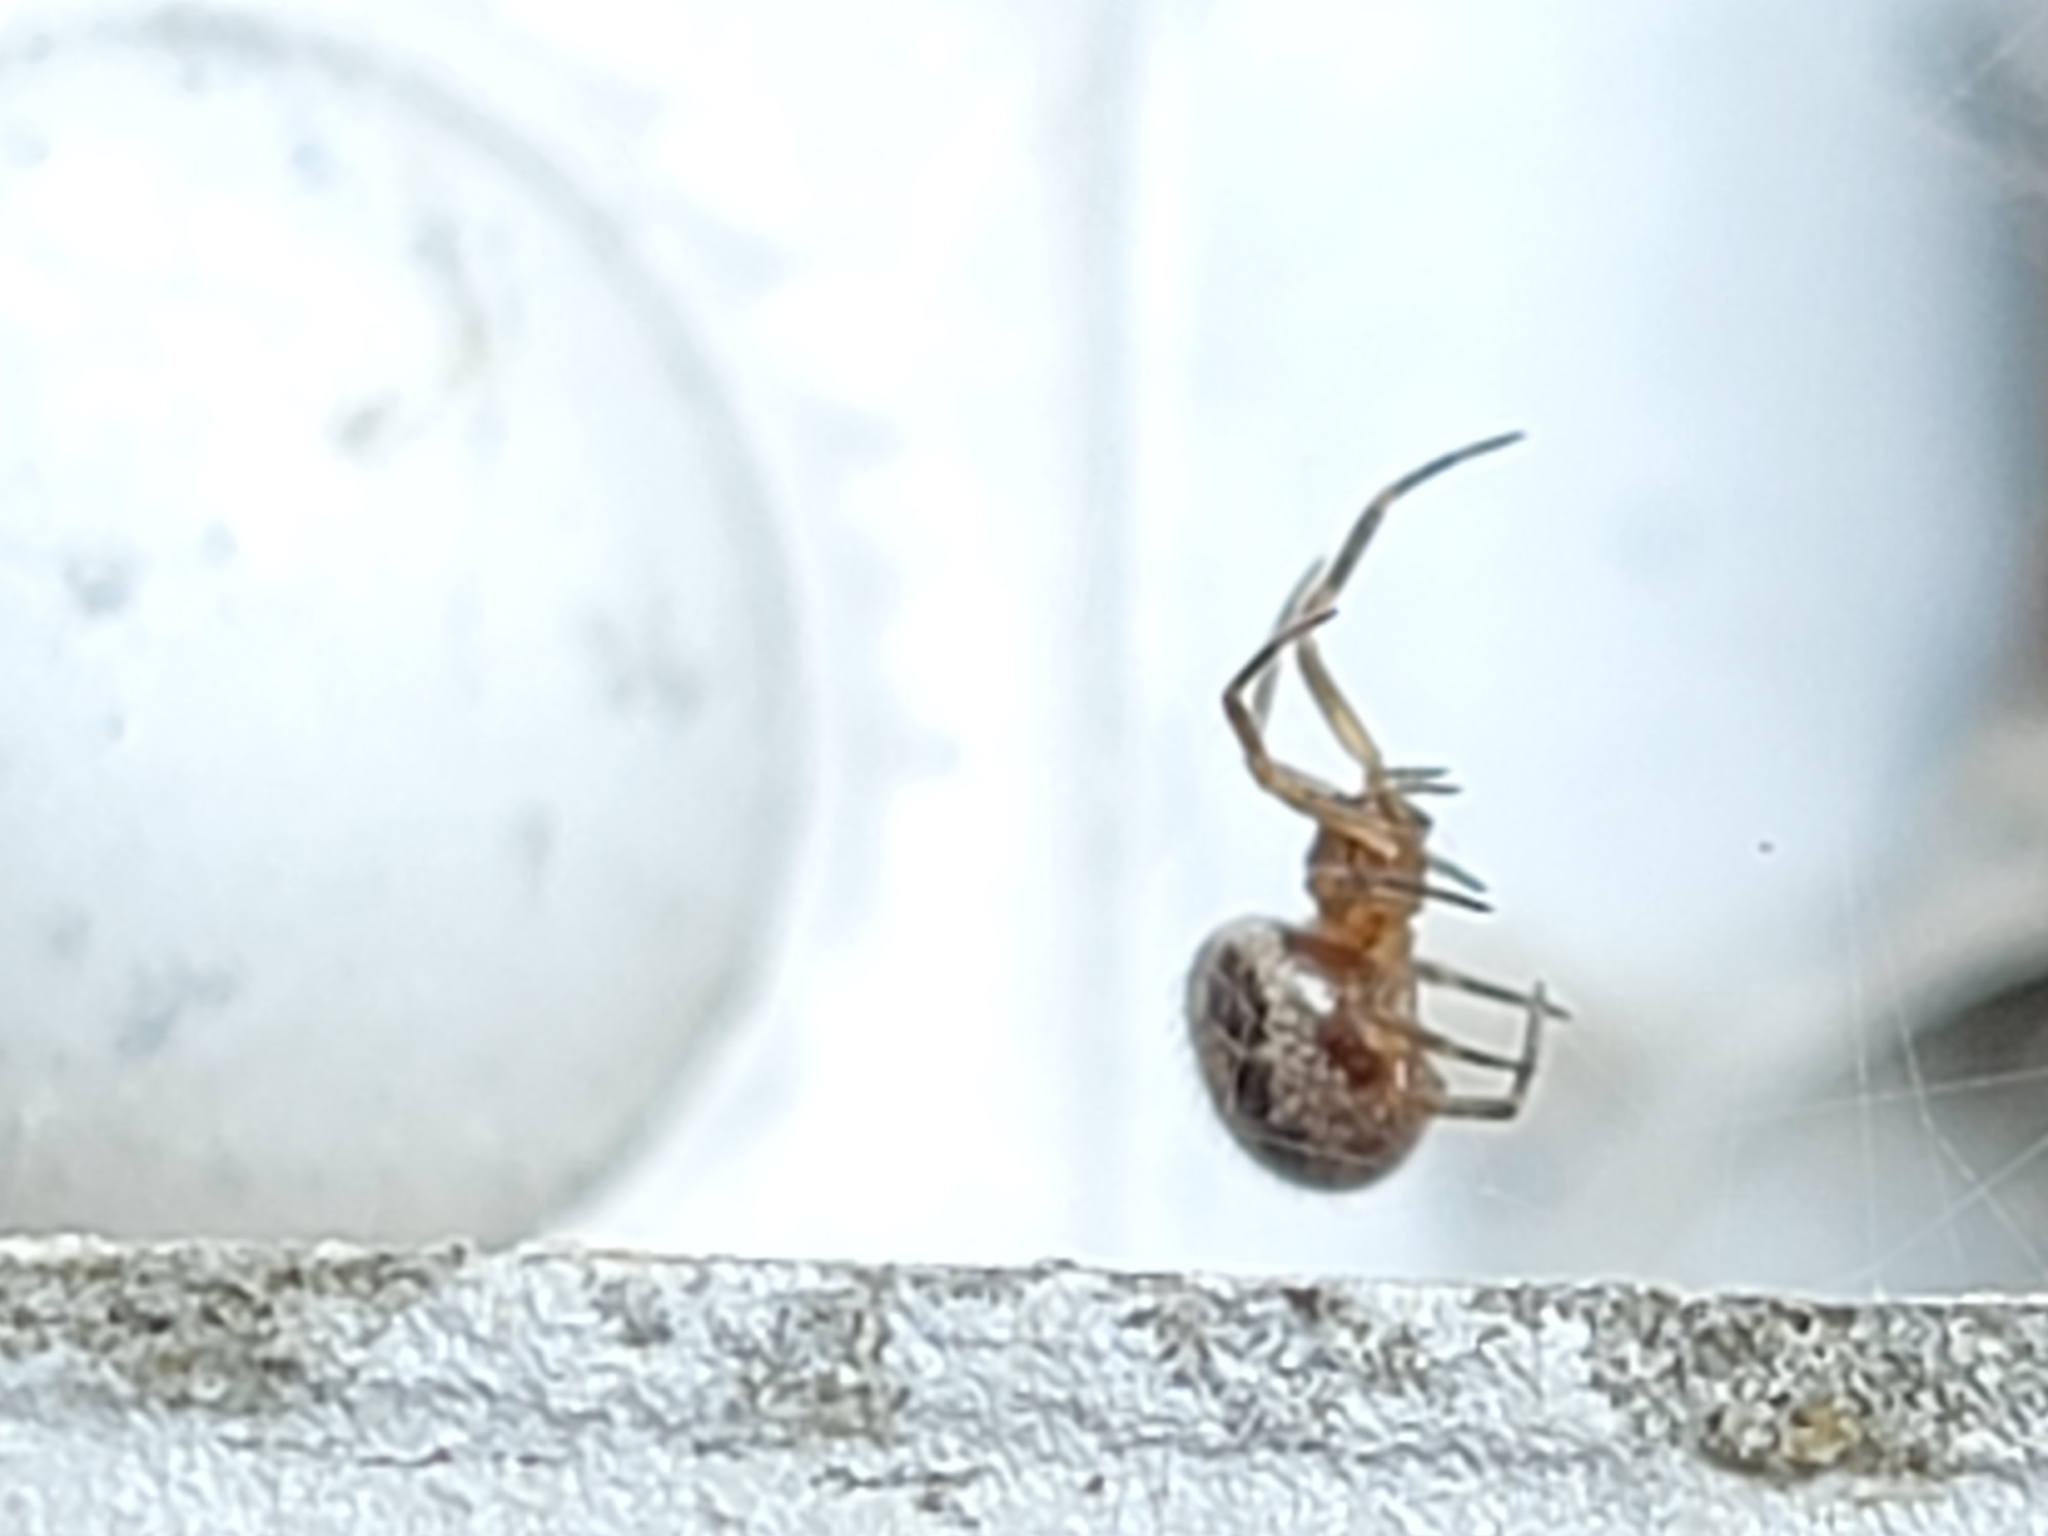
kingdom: Animalia
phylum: Arthropoda
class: Arachnida
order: Araneae
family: Theridiidae
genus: Steatoda
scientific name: Steatoda nobilis
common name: Cobweb weaver
